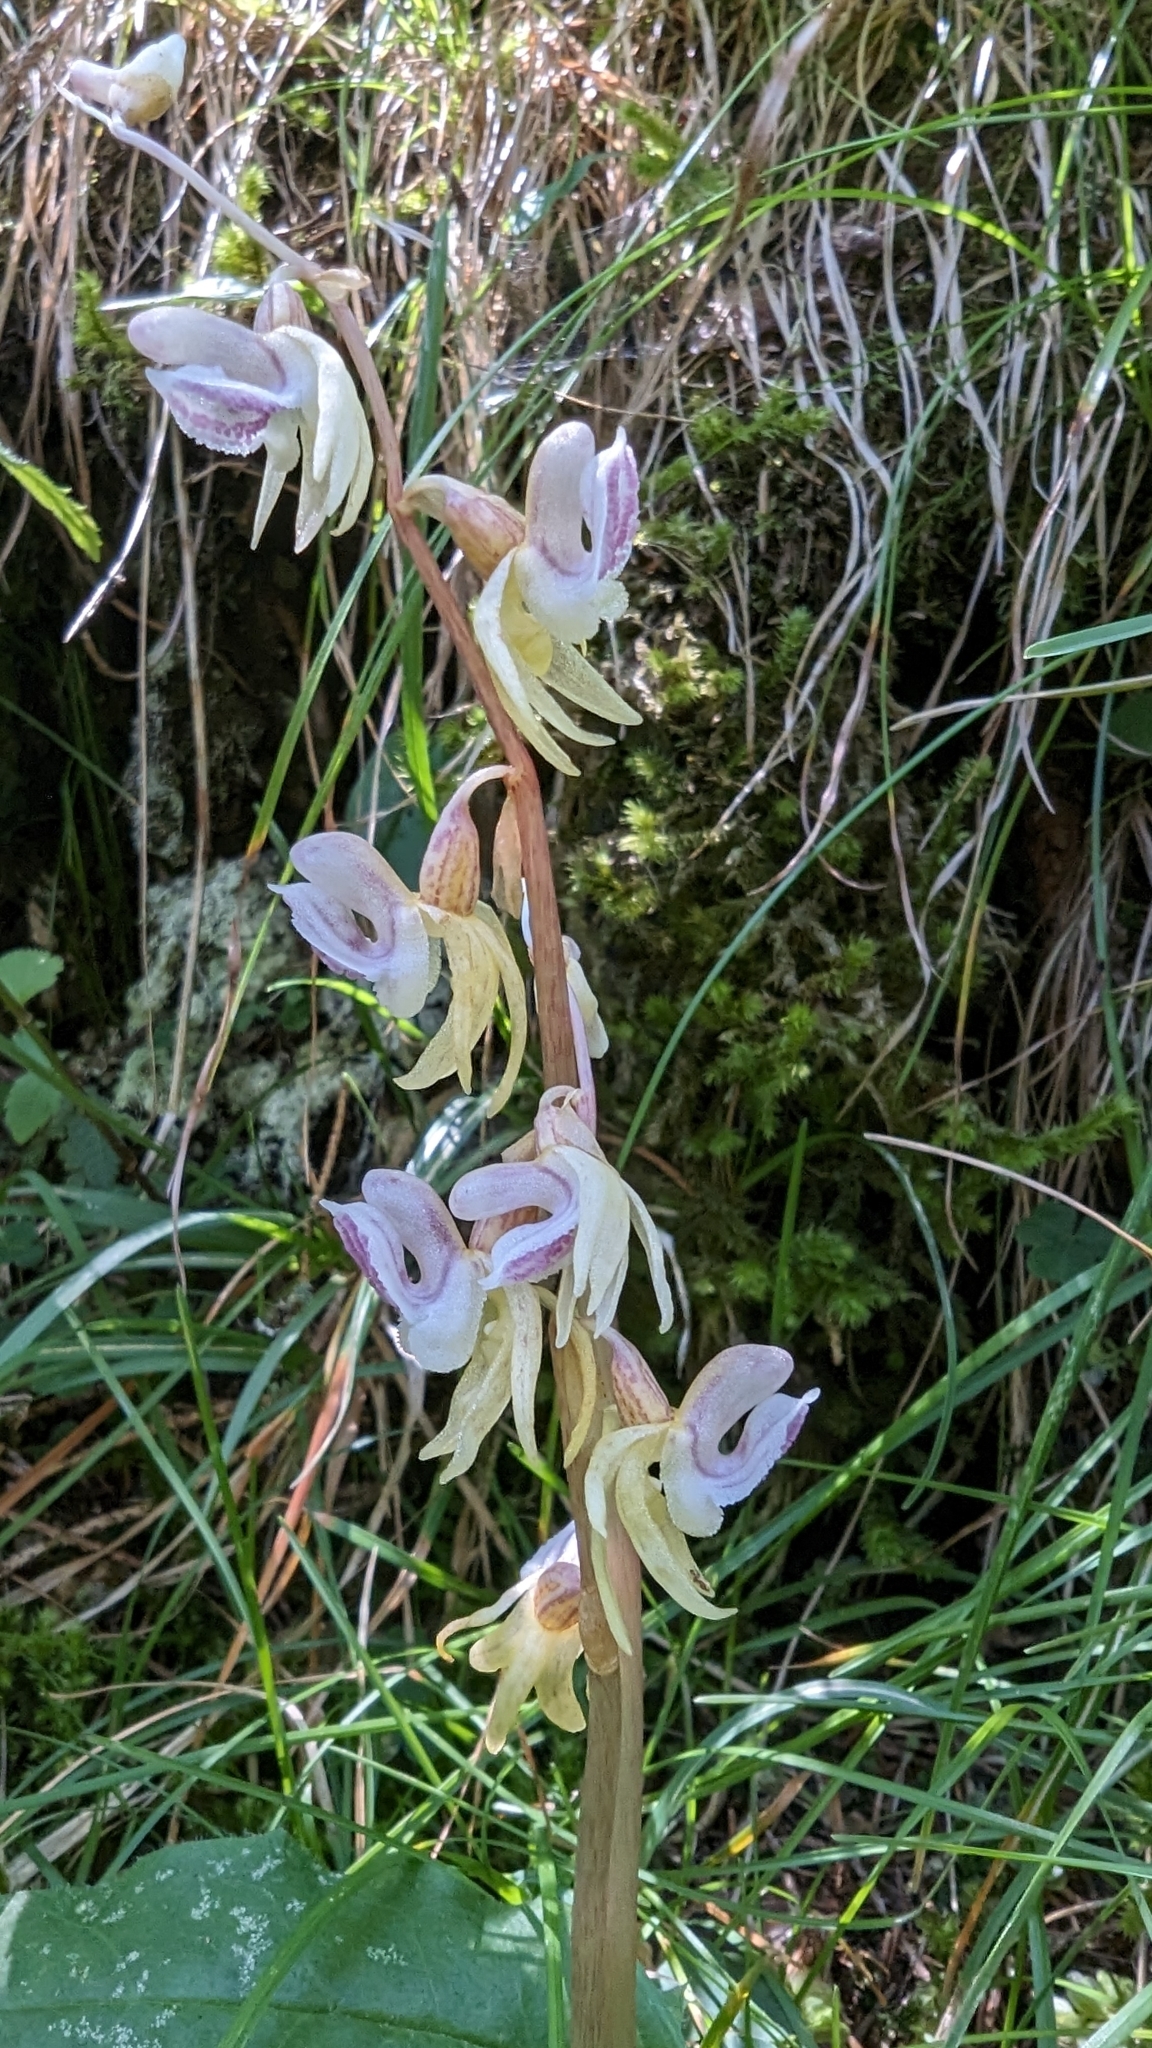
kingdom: Plantae
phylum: Tracheophyta
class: Liliopsida
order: Asparagales
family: Orchidaceae
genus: Epipogium
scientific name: Epipogium aphyllum
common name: Ghost orchid
